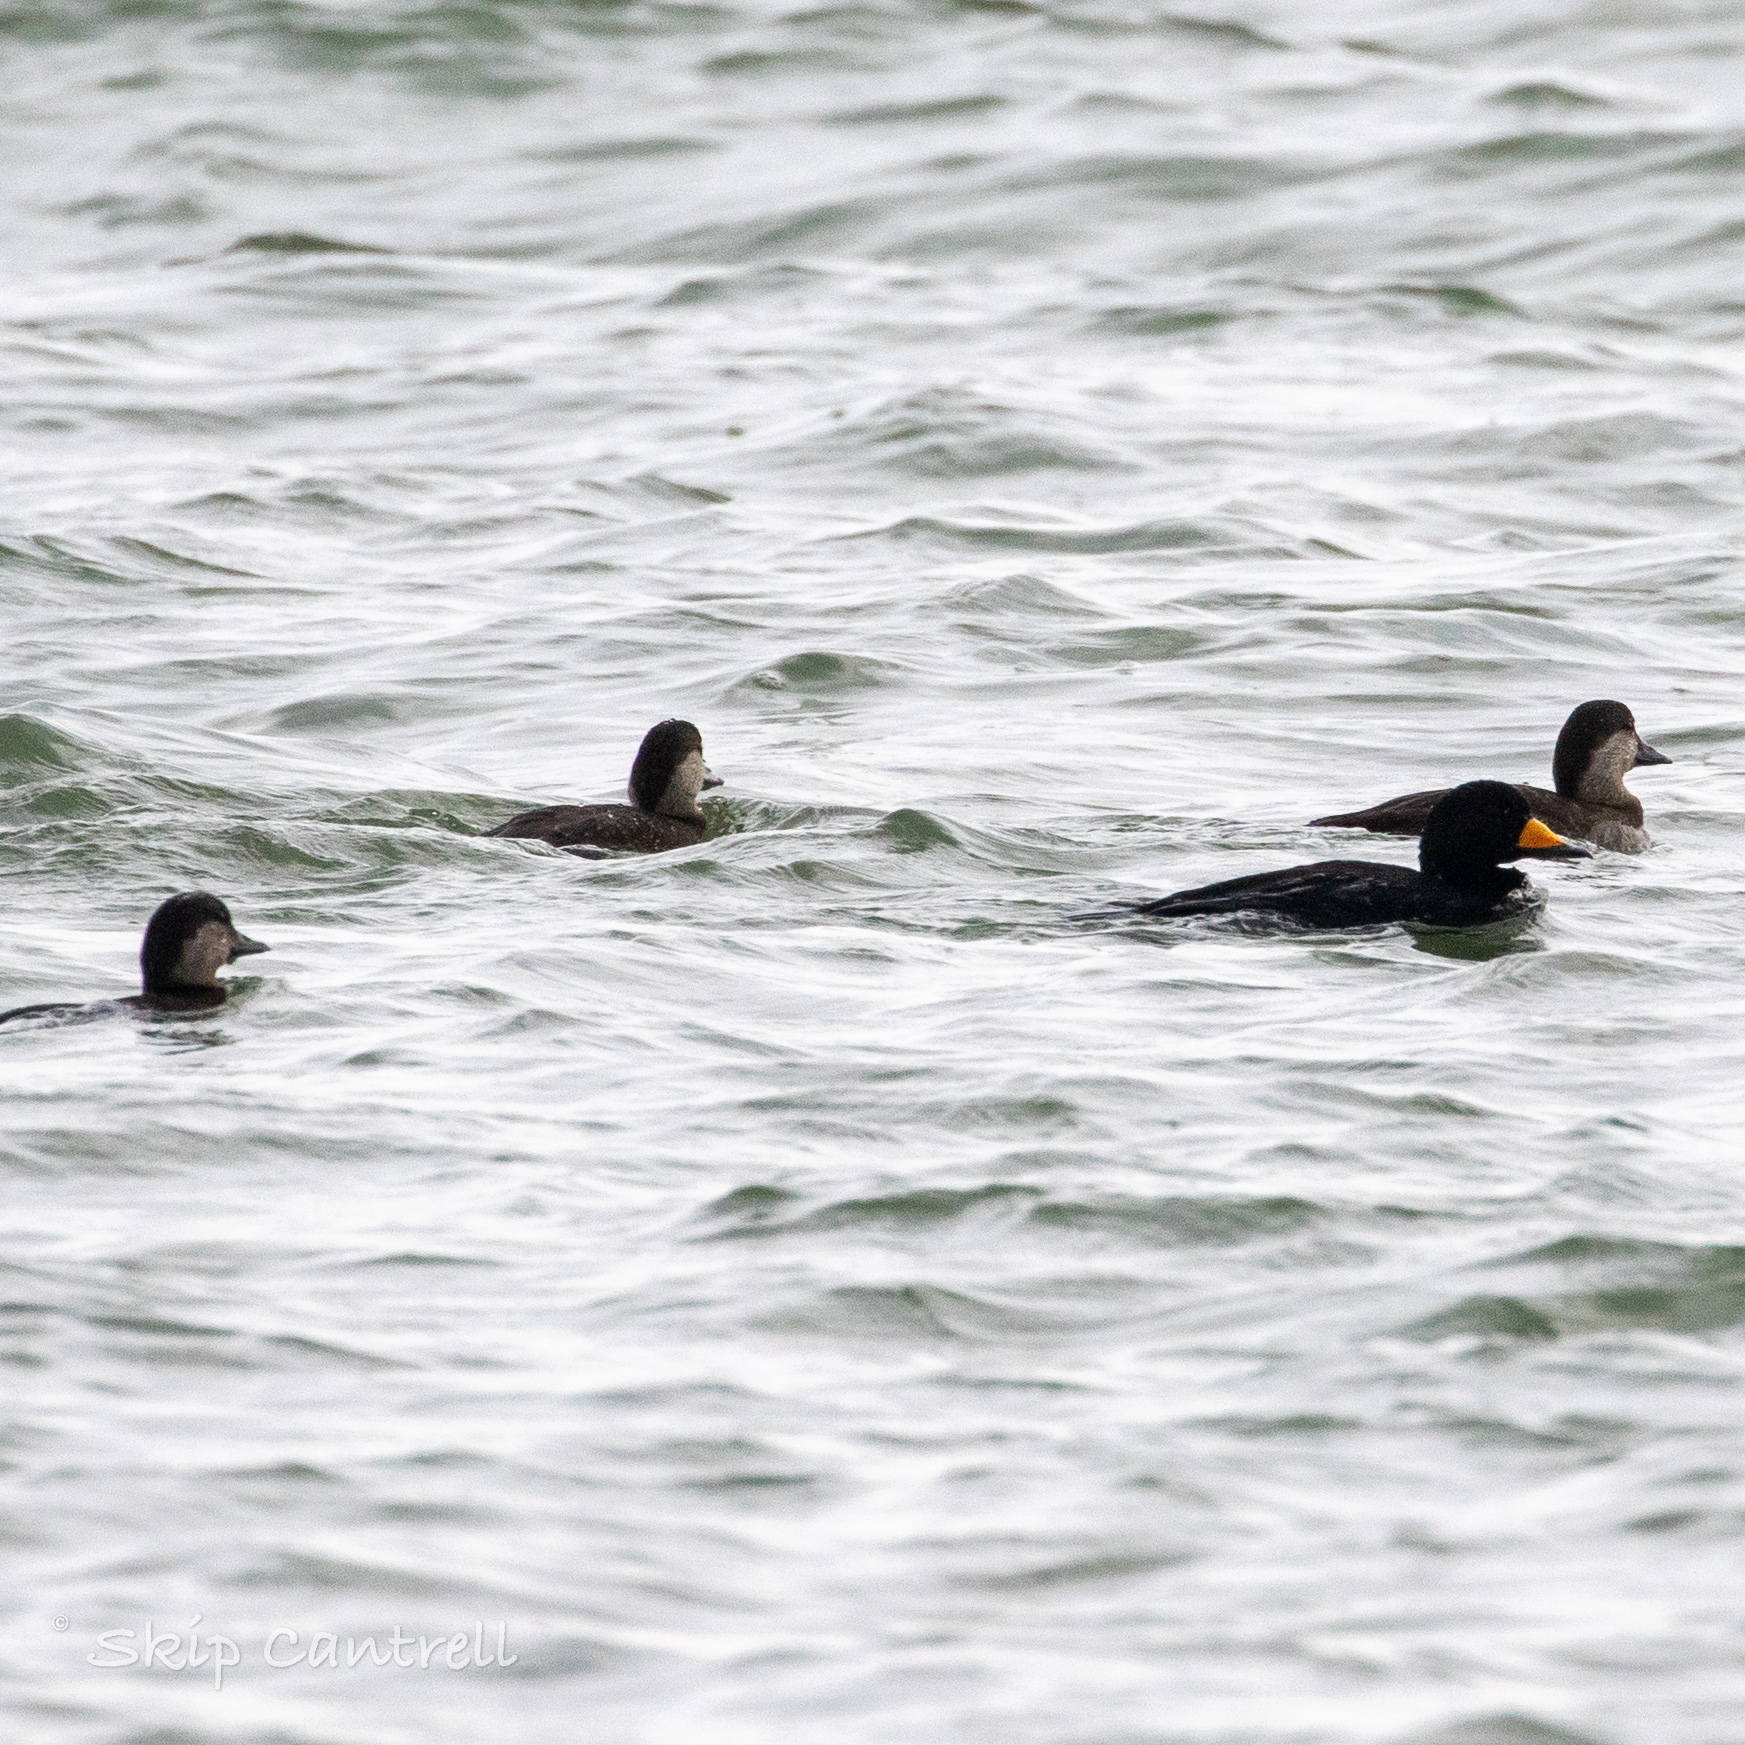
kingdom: Animalia
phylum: Chordata
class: Aves
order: Anseriformes
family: Anatidae
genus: Melanitta
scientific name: Melanitta americana
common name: Black scoter
